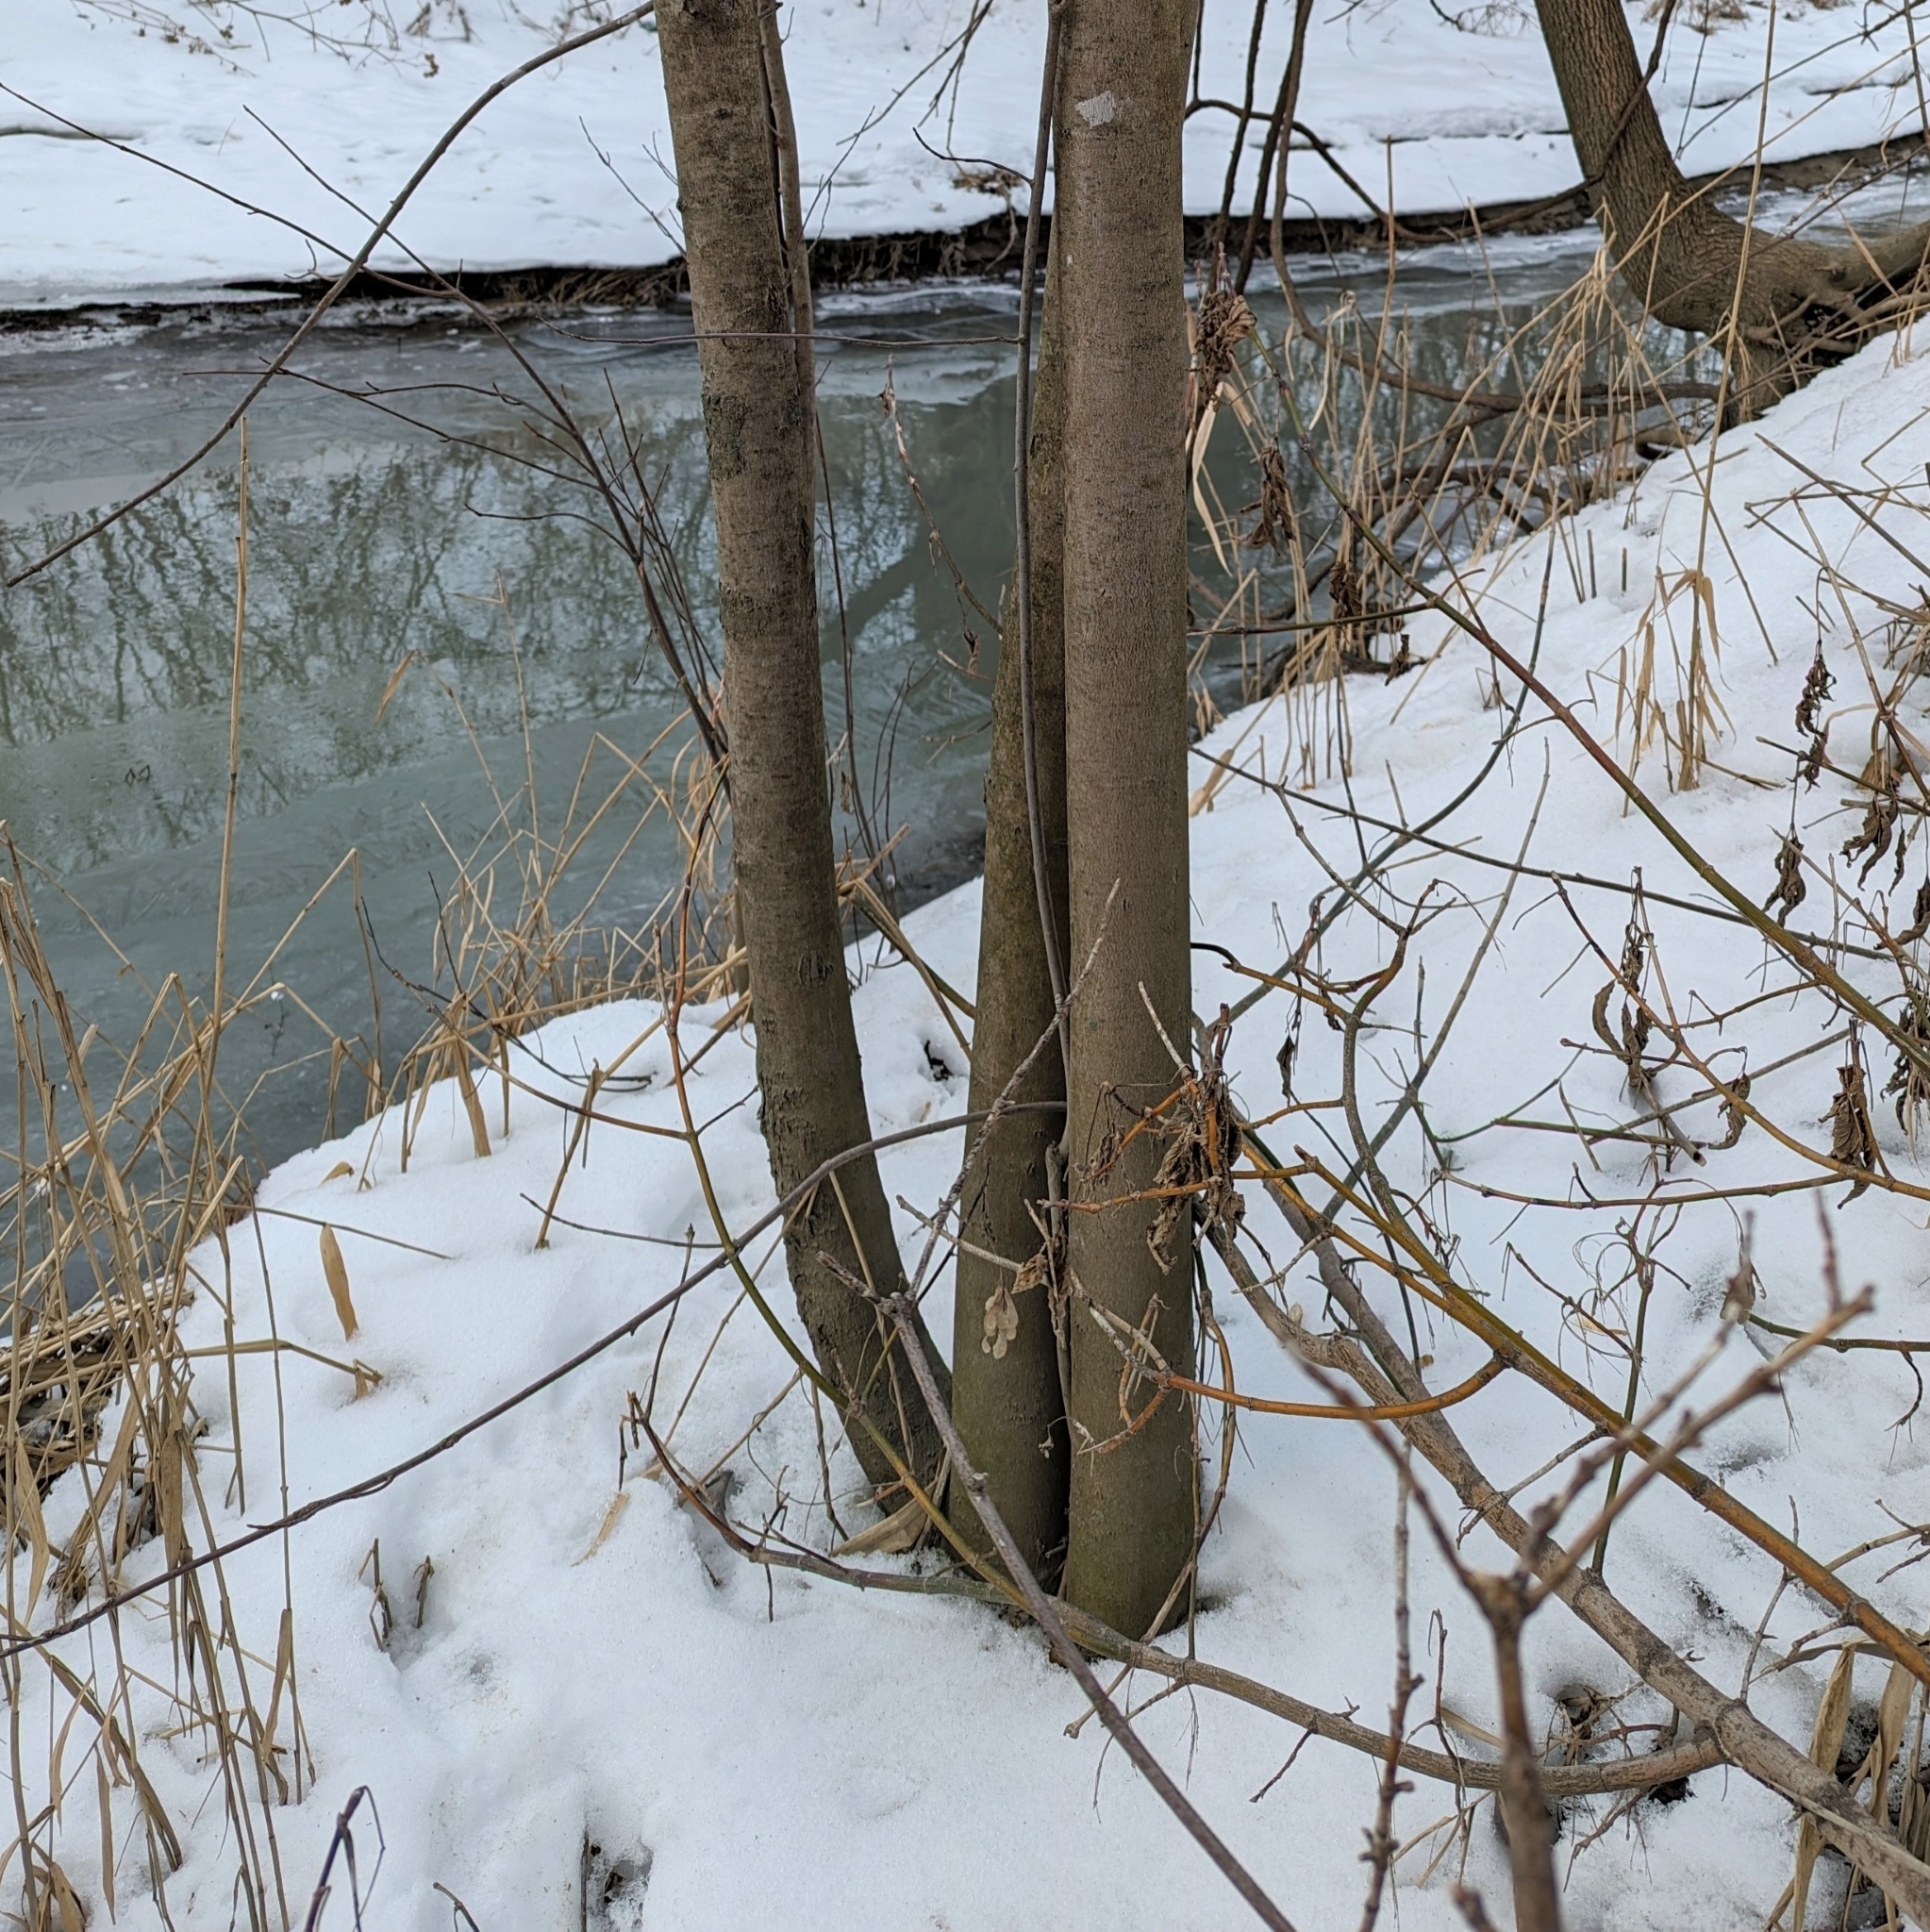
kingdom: Plantae
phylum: Tracheophyta
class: Magnoliopsida
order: Gentianales
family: Rubiaceae
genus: Rubia
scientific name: Rubia
